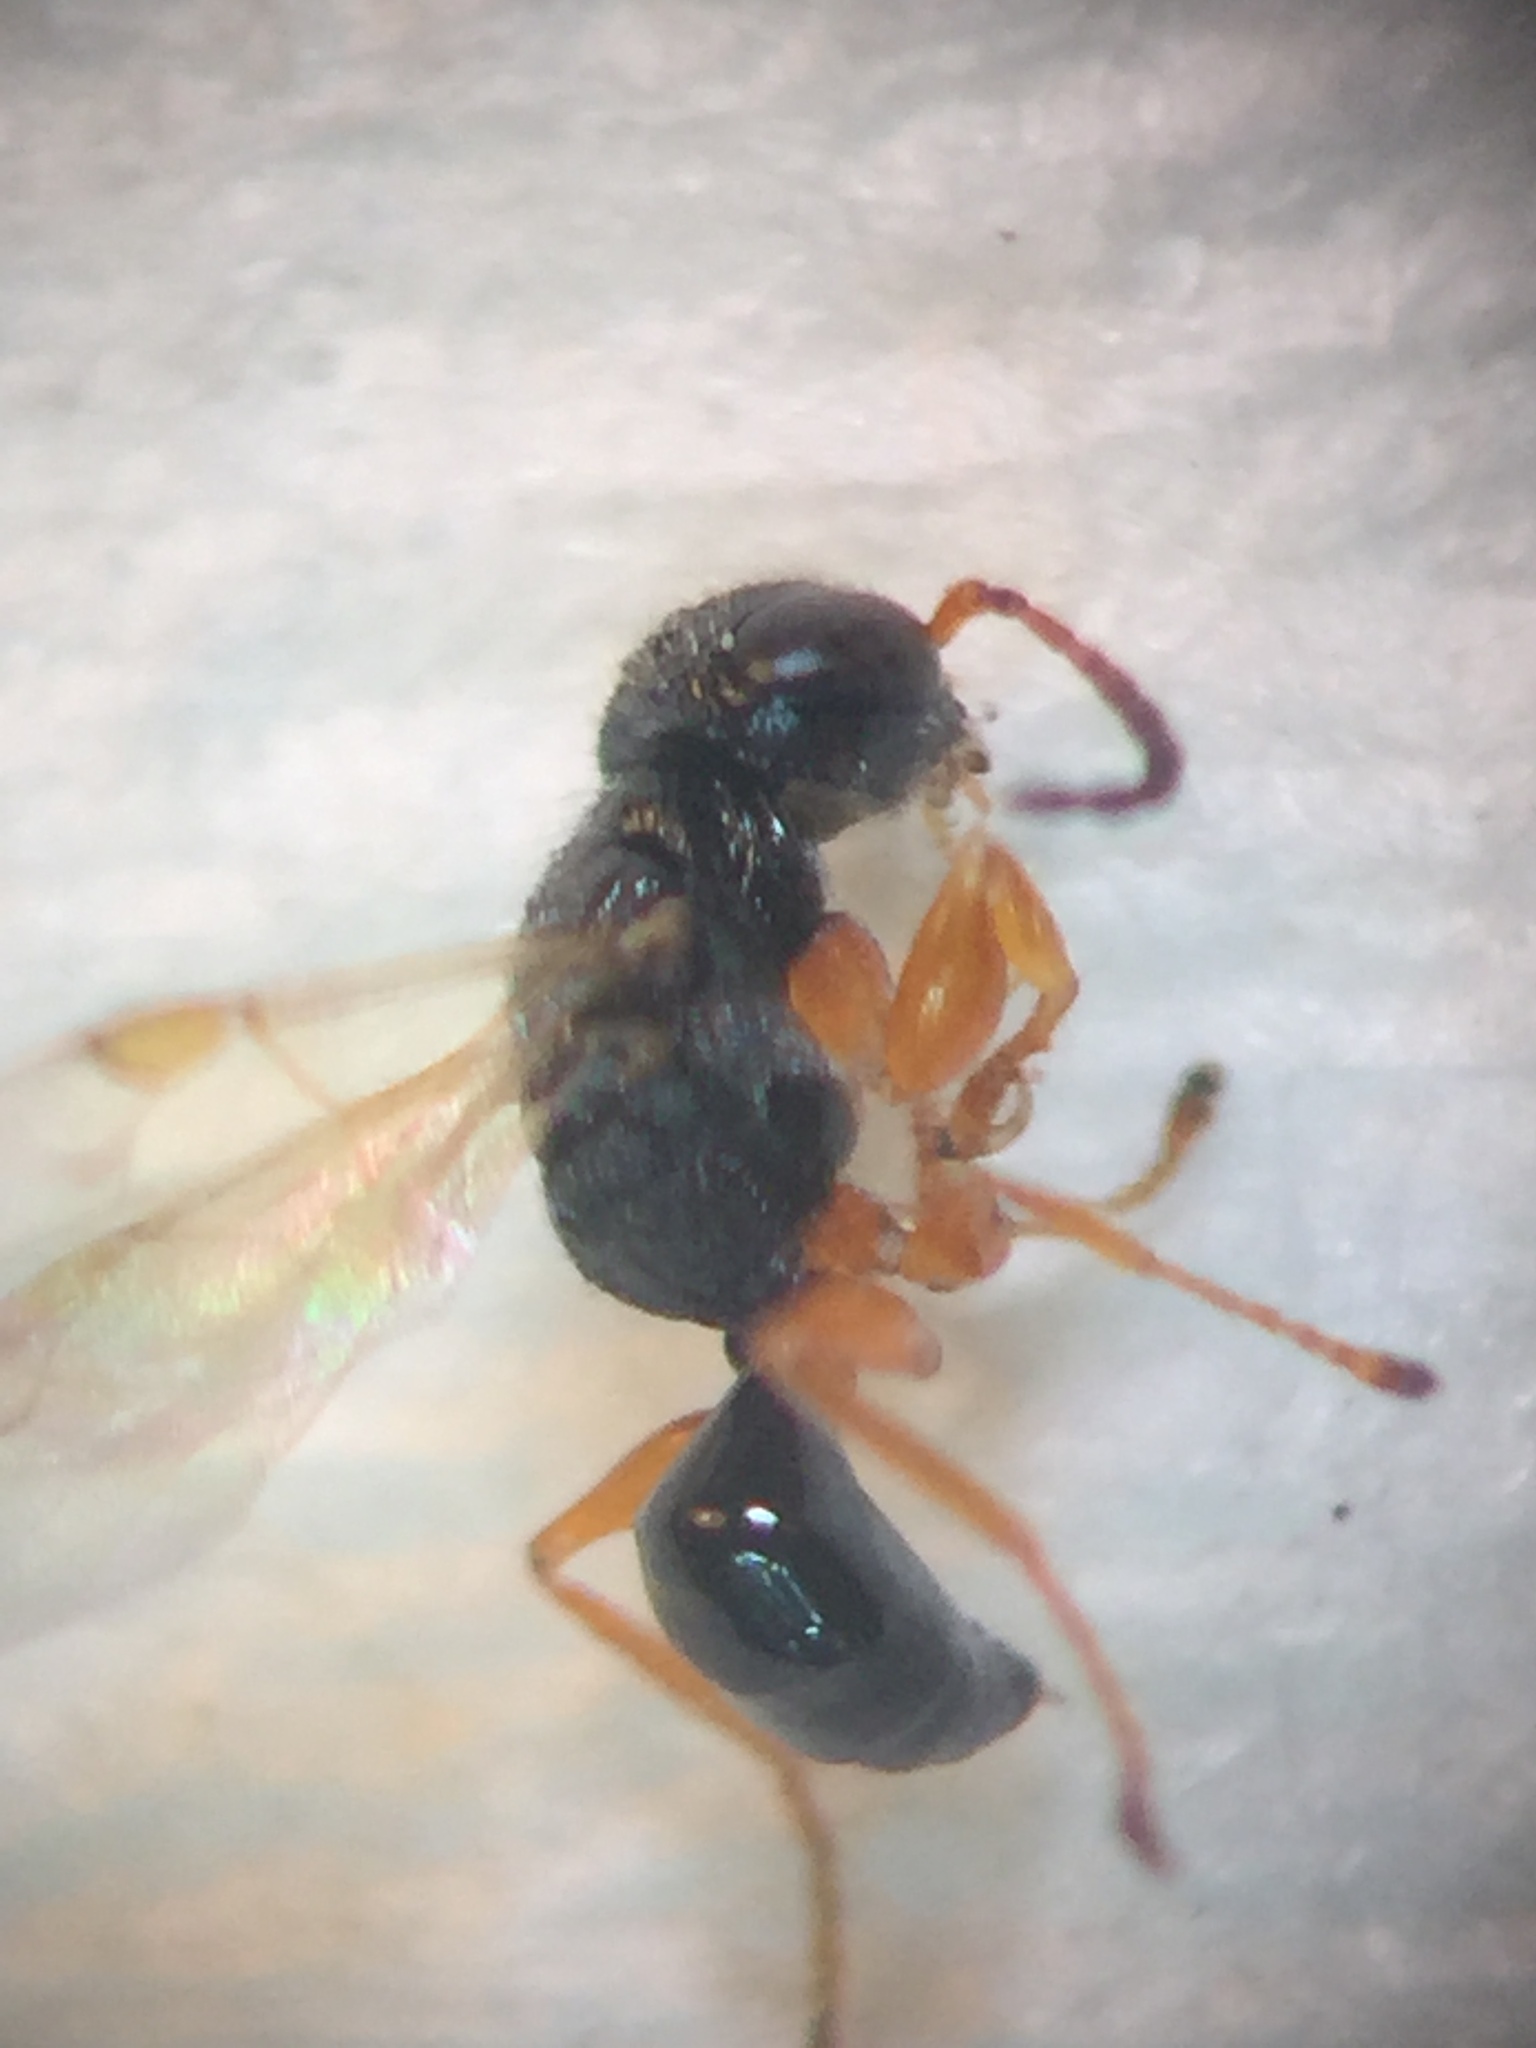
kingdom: Animalia
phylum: Arthropoda
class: Insecta
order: Hymenoptera
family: Dryinidae
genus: Anteon
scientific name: Anteon caledonianum
